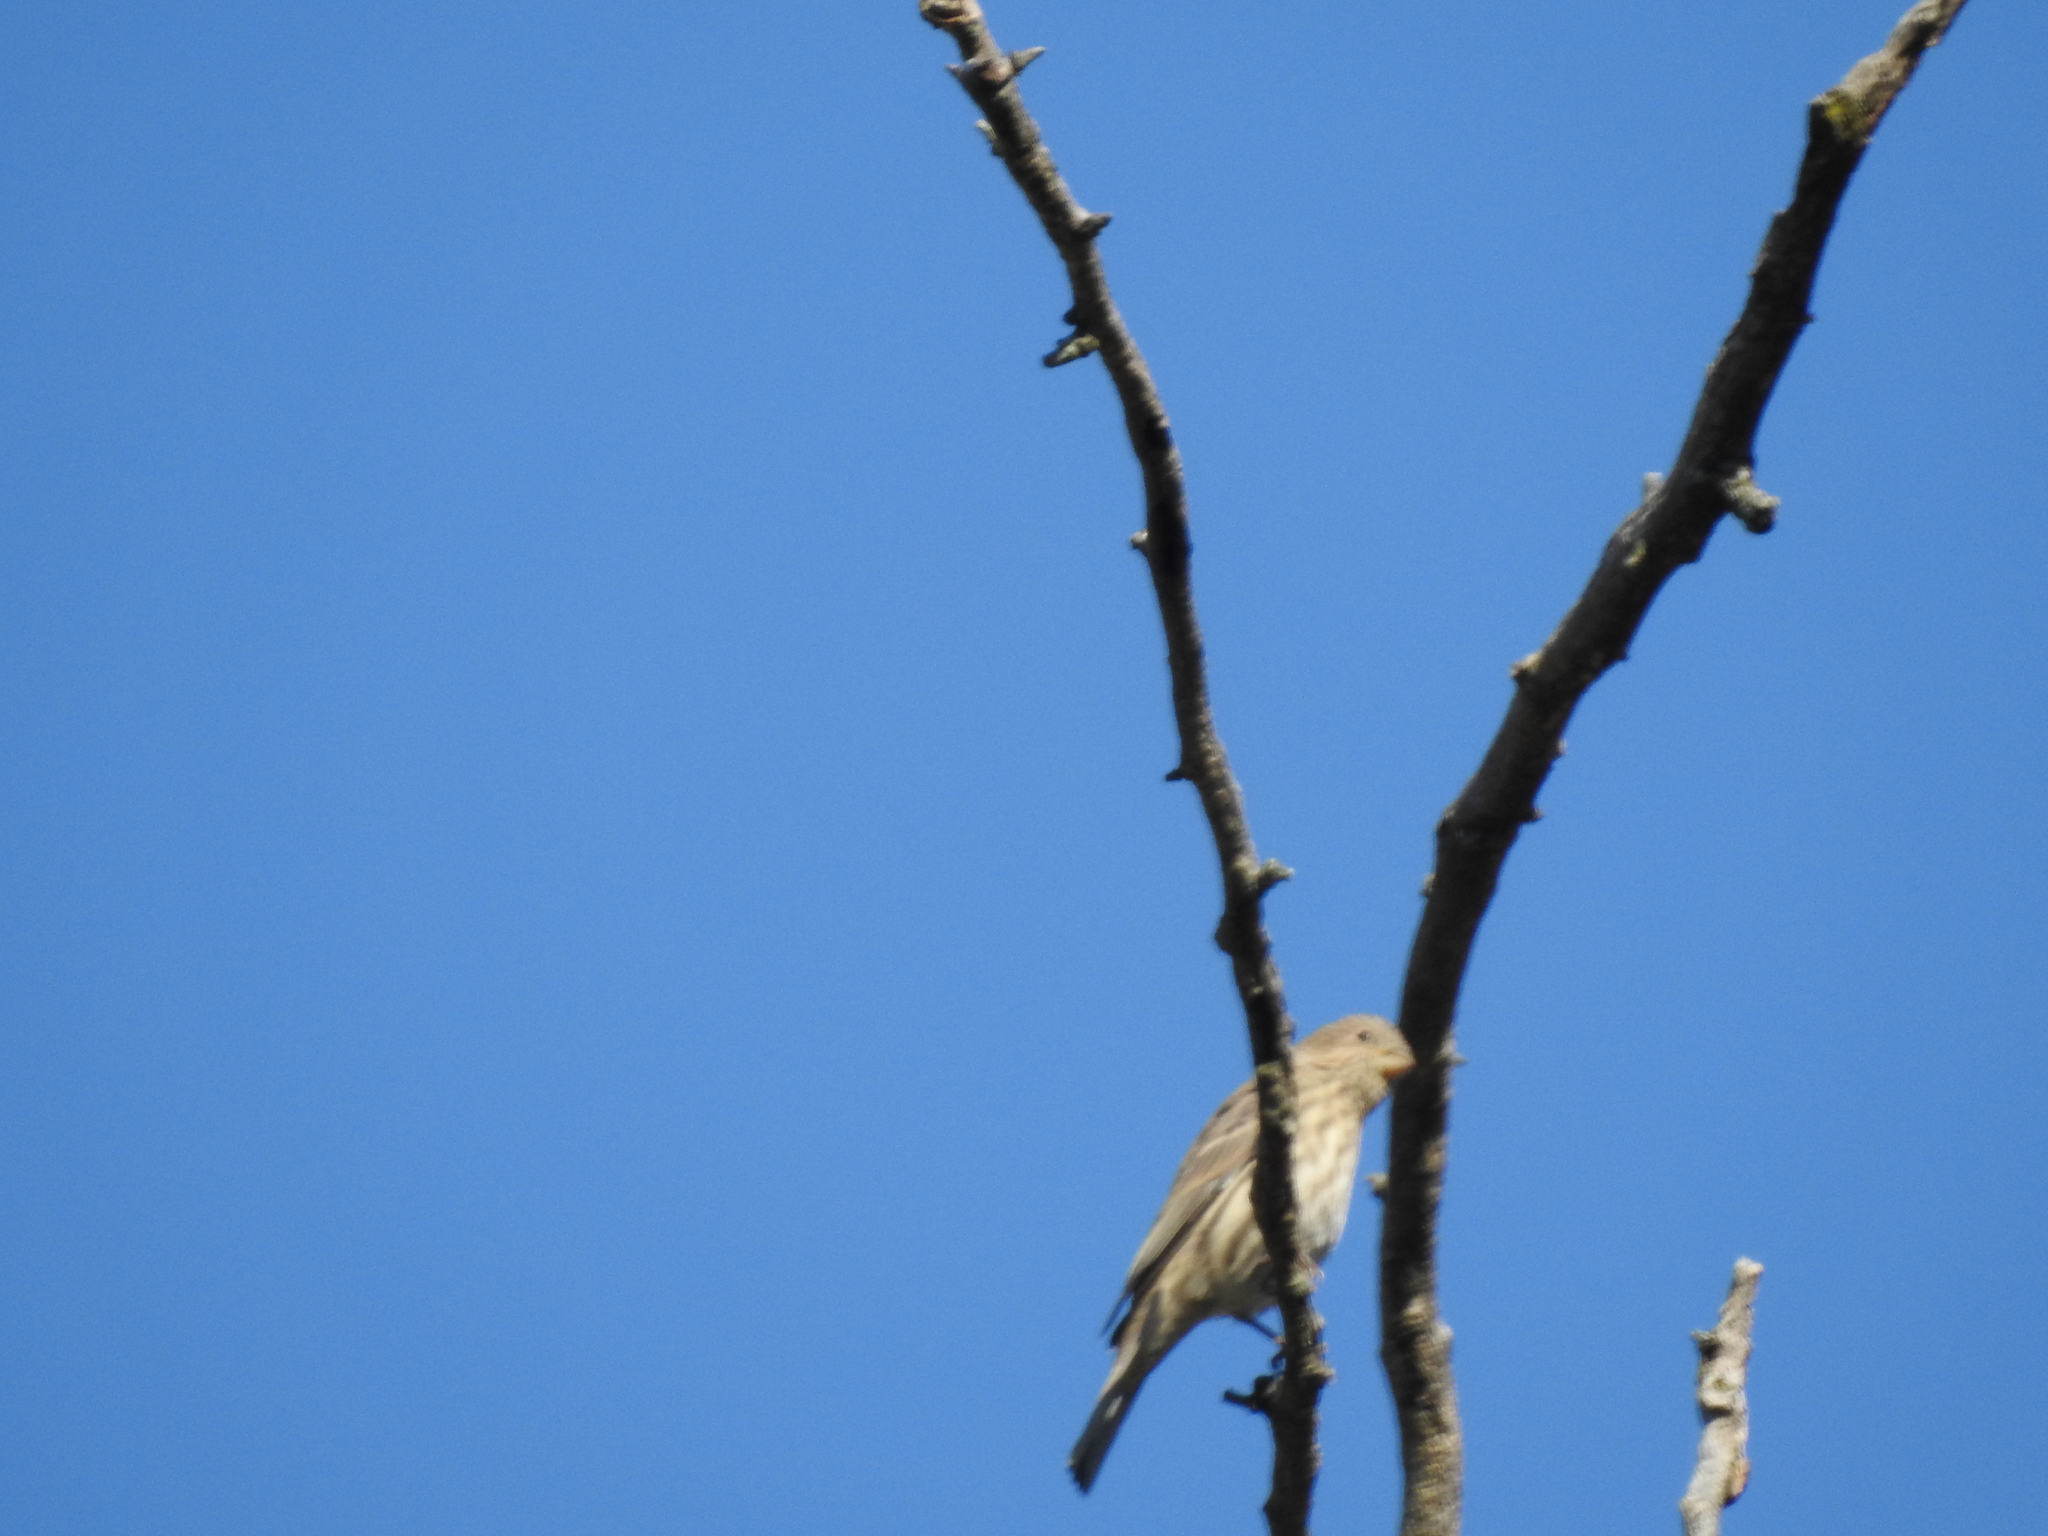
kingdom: Animalia
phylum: Chordata
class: Aves
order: Passeriformes
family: Fringillidae
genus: Haemorhous
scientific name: Haemorhous mexicanus
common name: House finch
